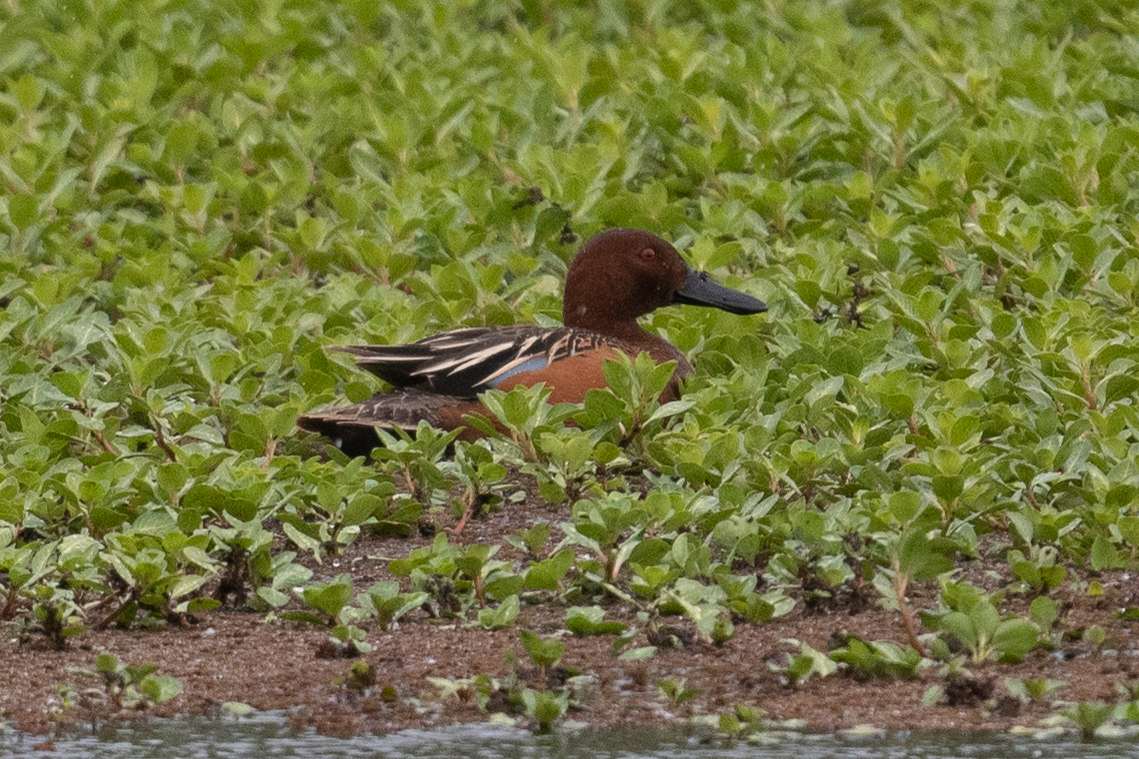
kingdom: Animalia
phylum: Chordata
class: Aves
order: Anseriformes
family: Anatidae
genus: Spatula
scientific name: Spatula cyanoptera
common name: Cinnamon teal
